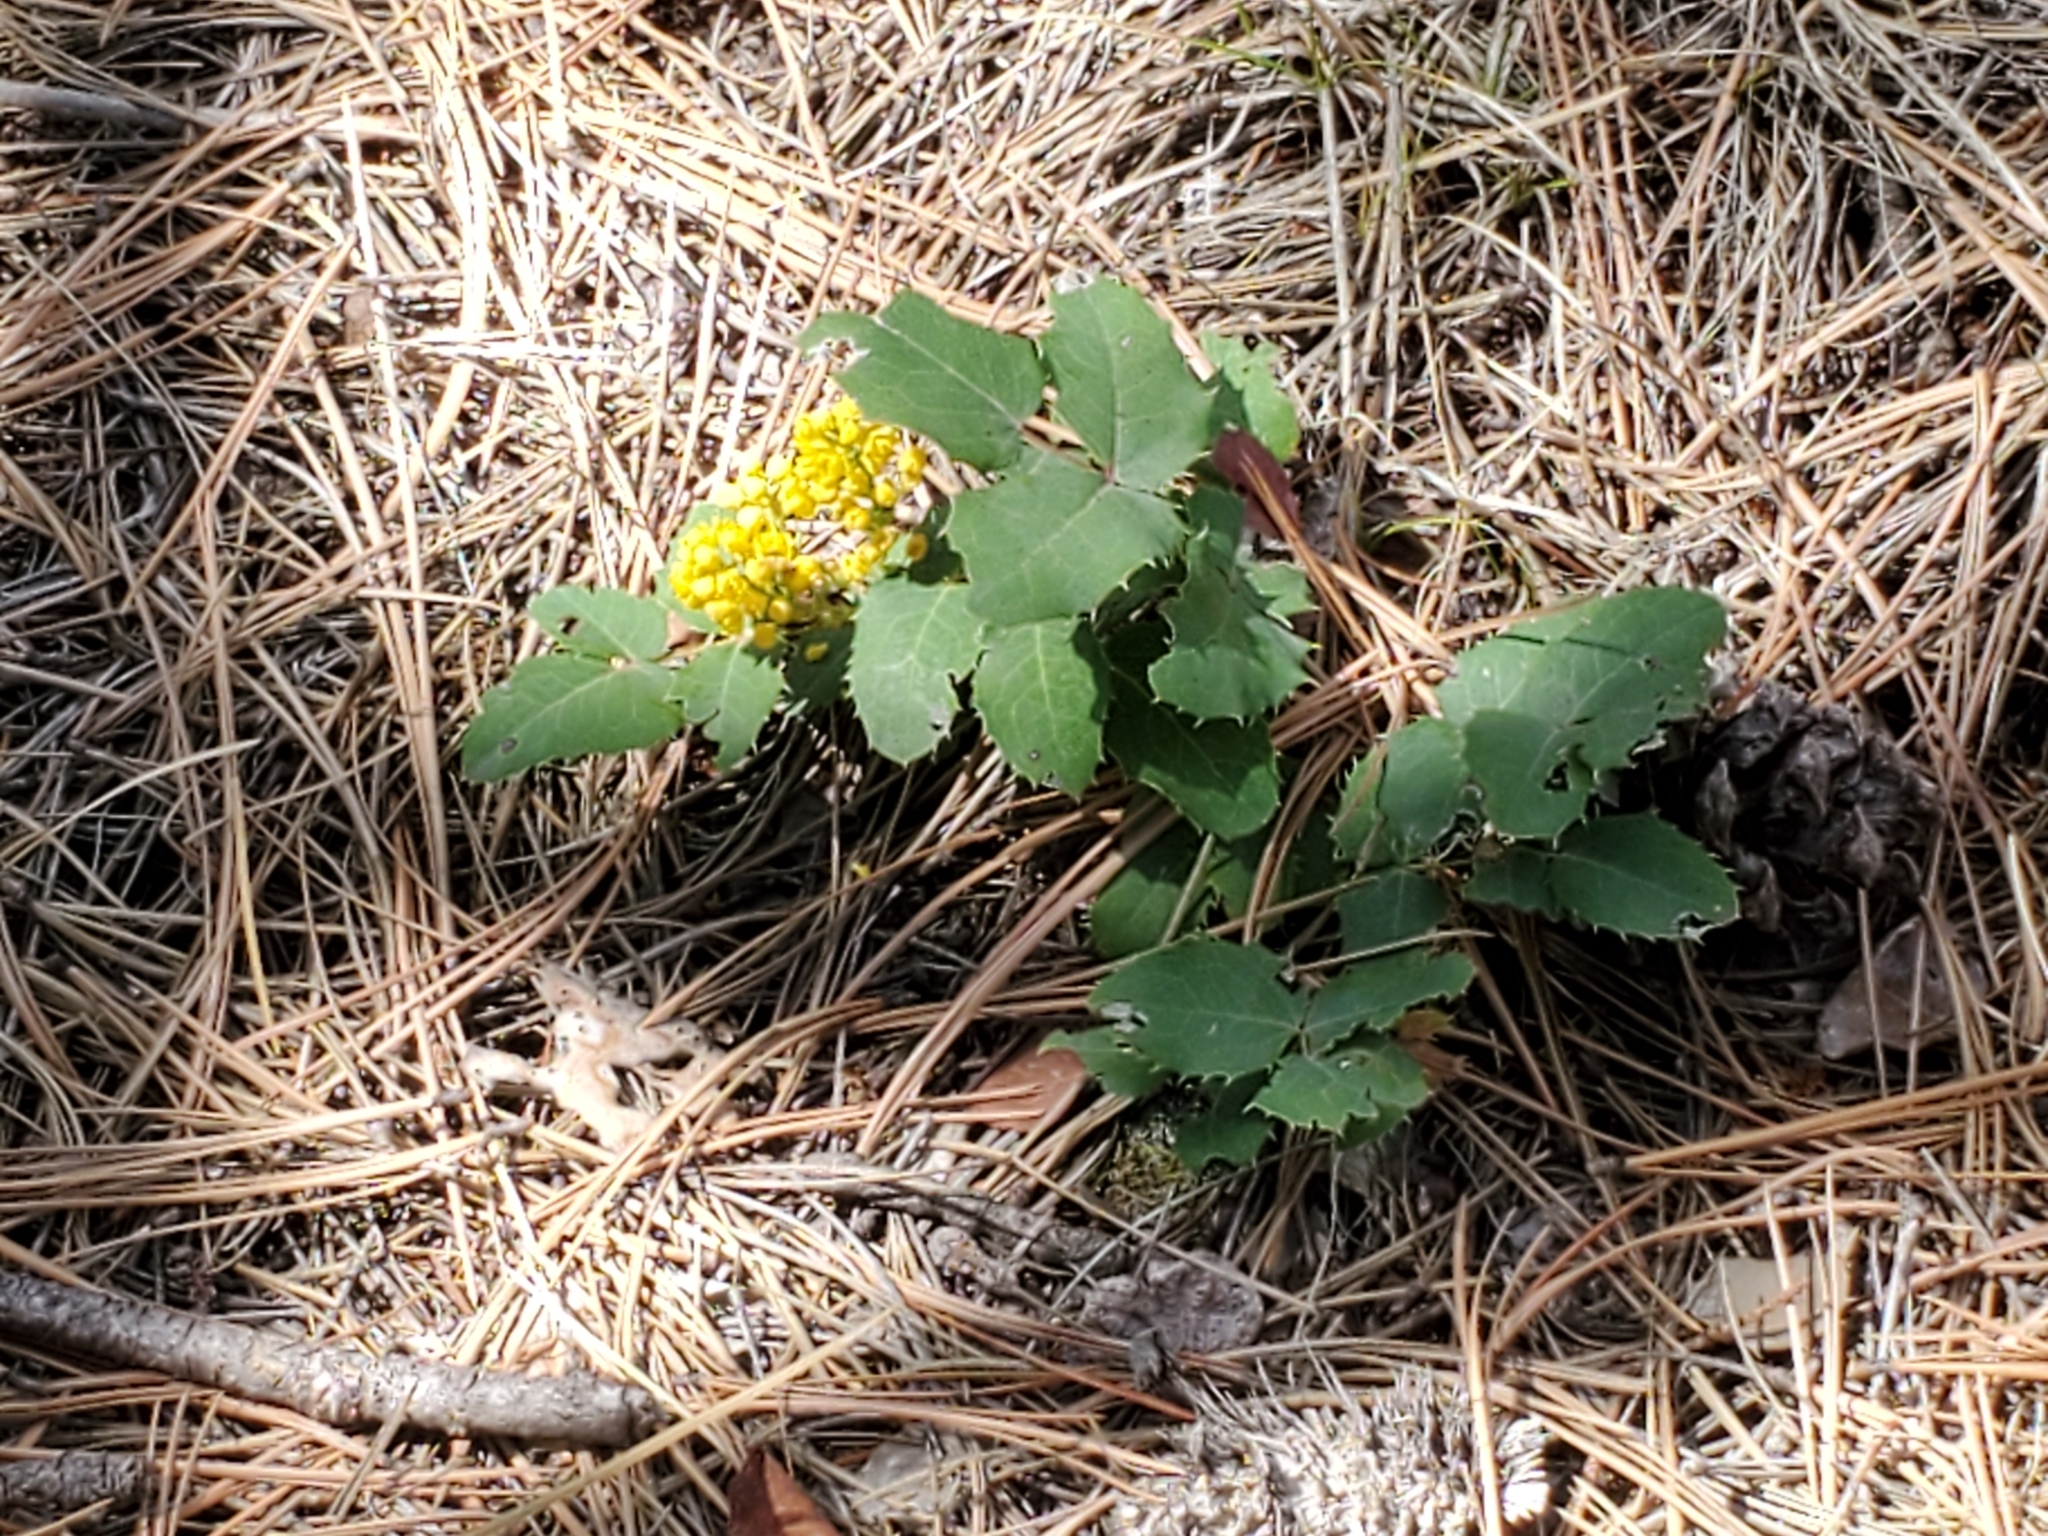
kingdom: Plantae
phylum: Tracheophyta
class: Magnoliopsida
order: Ranunculales
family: Berberidaceae
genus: Mahonia
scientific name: Mahonia repens
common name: Creeping oregon-grape
